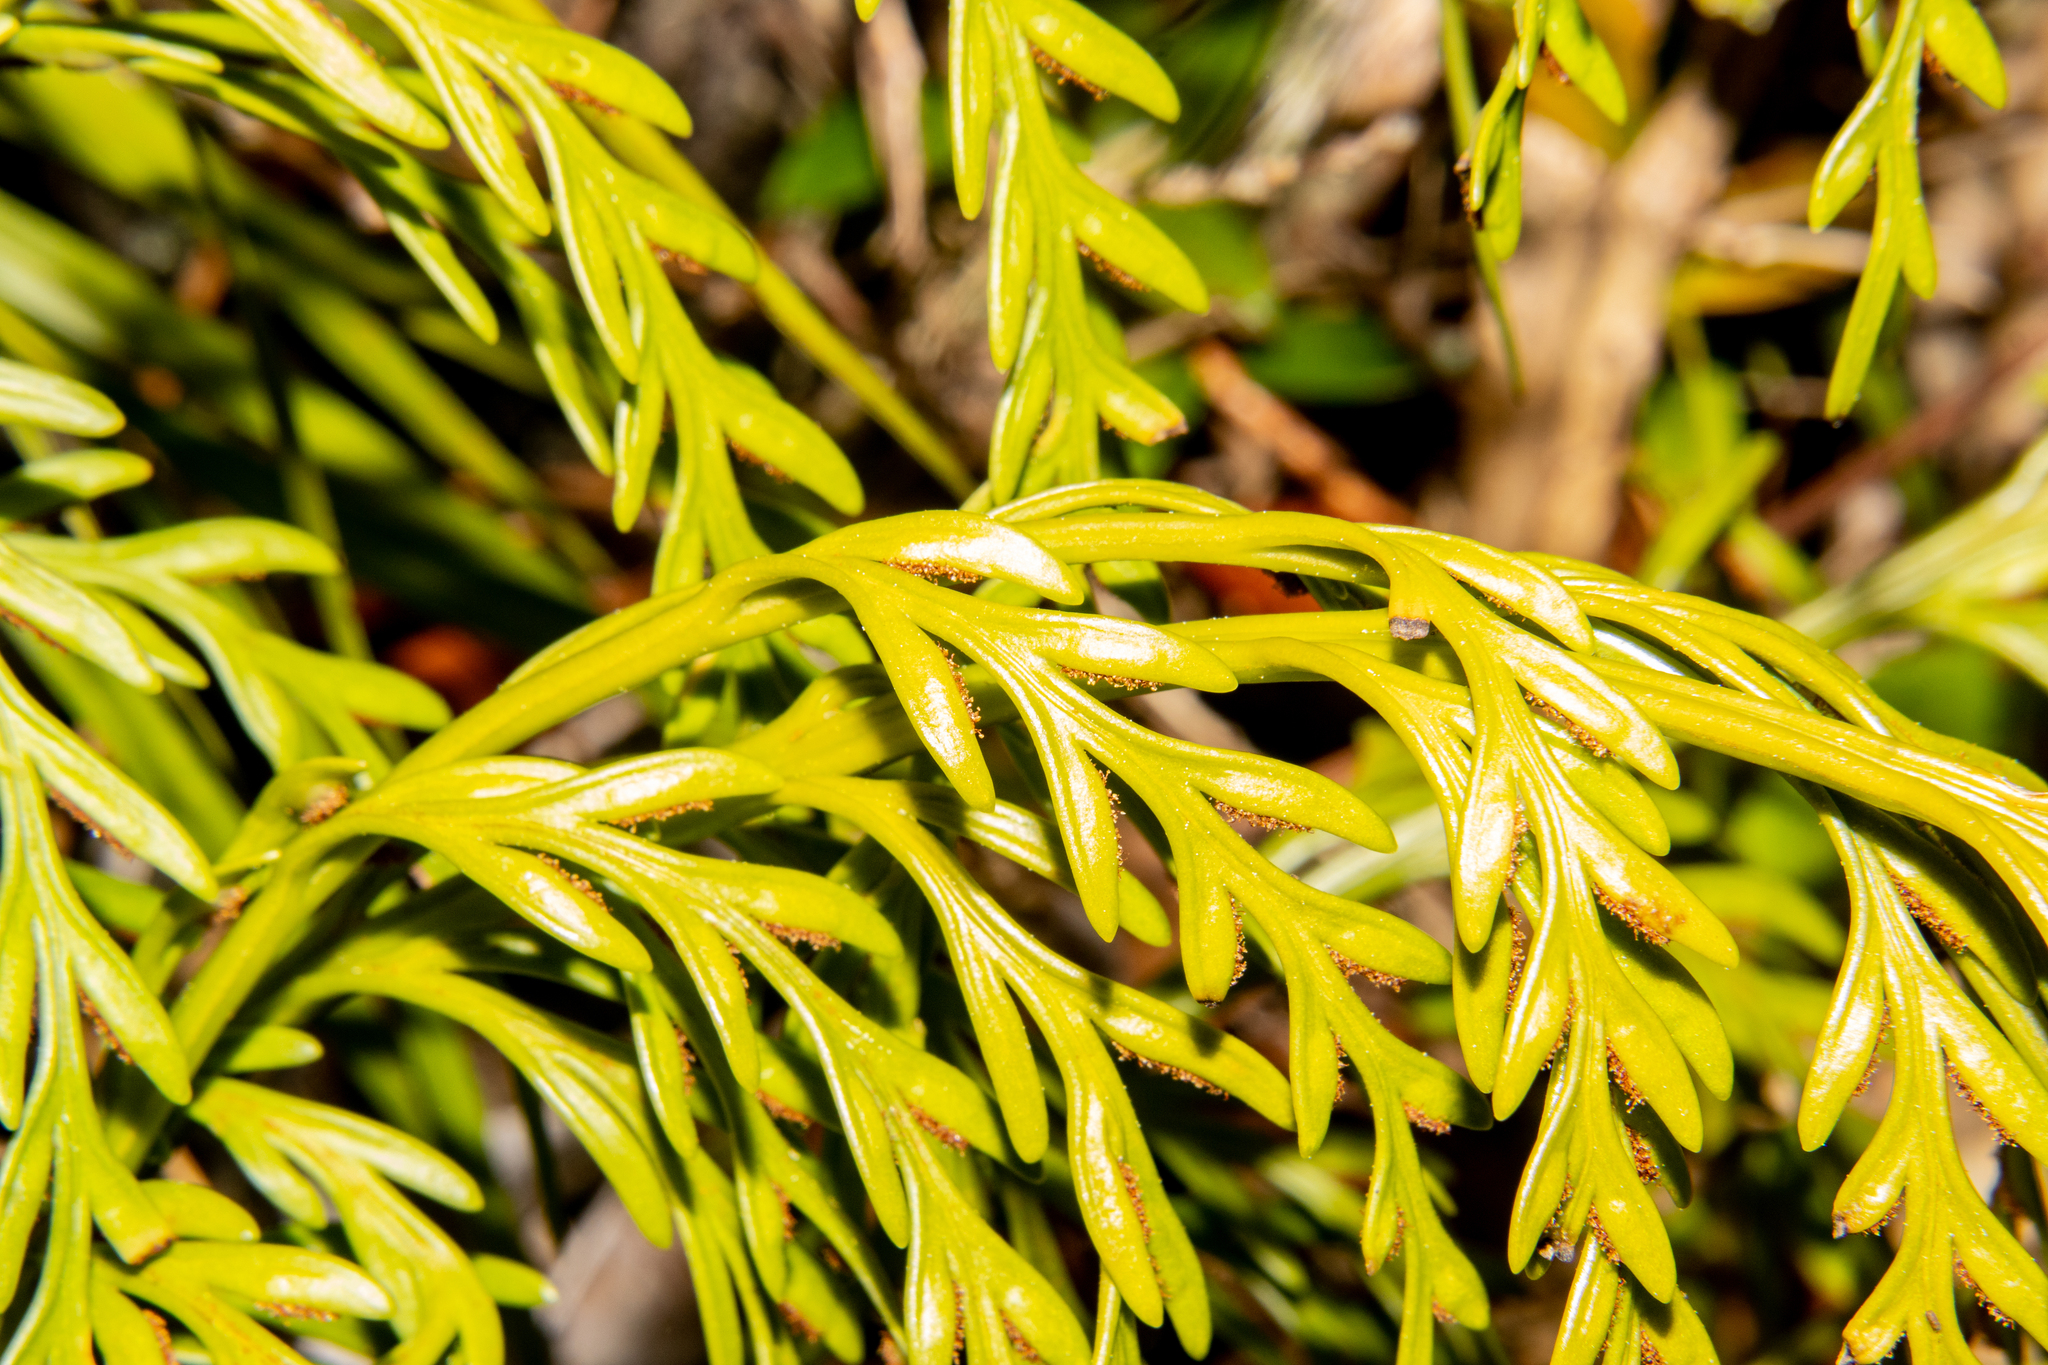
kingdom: Plantae
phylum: Tracheophyta
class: Polypodiopsida
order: Polypodiales
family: Aspleniaceae
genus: Asplenium
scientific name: Asplenium flaccidum
